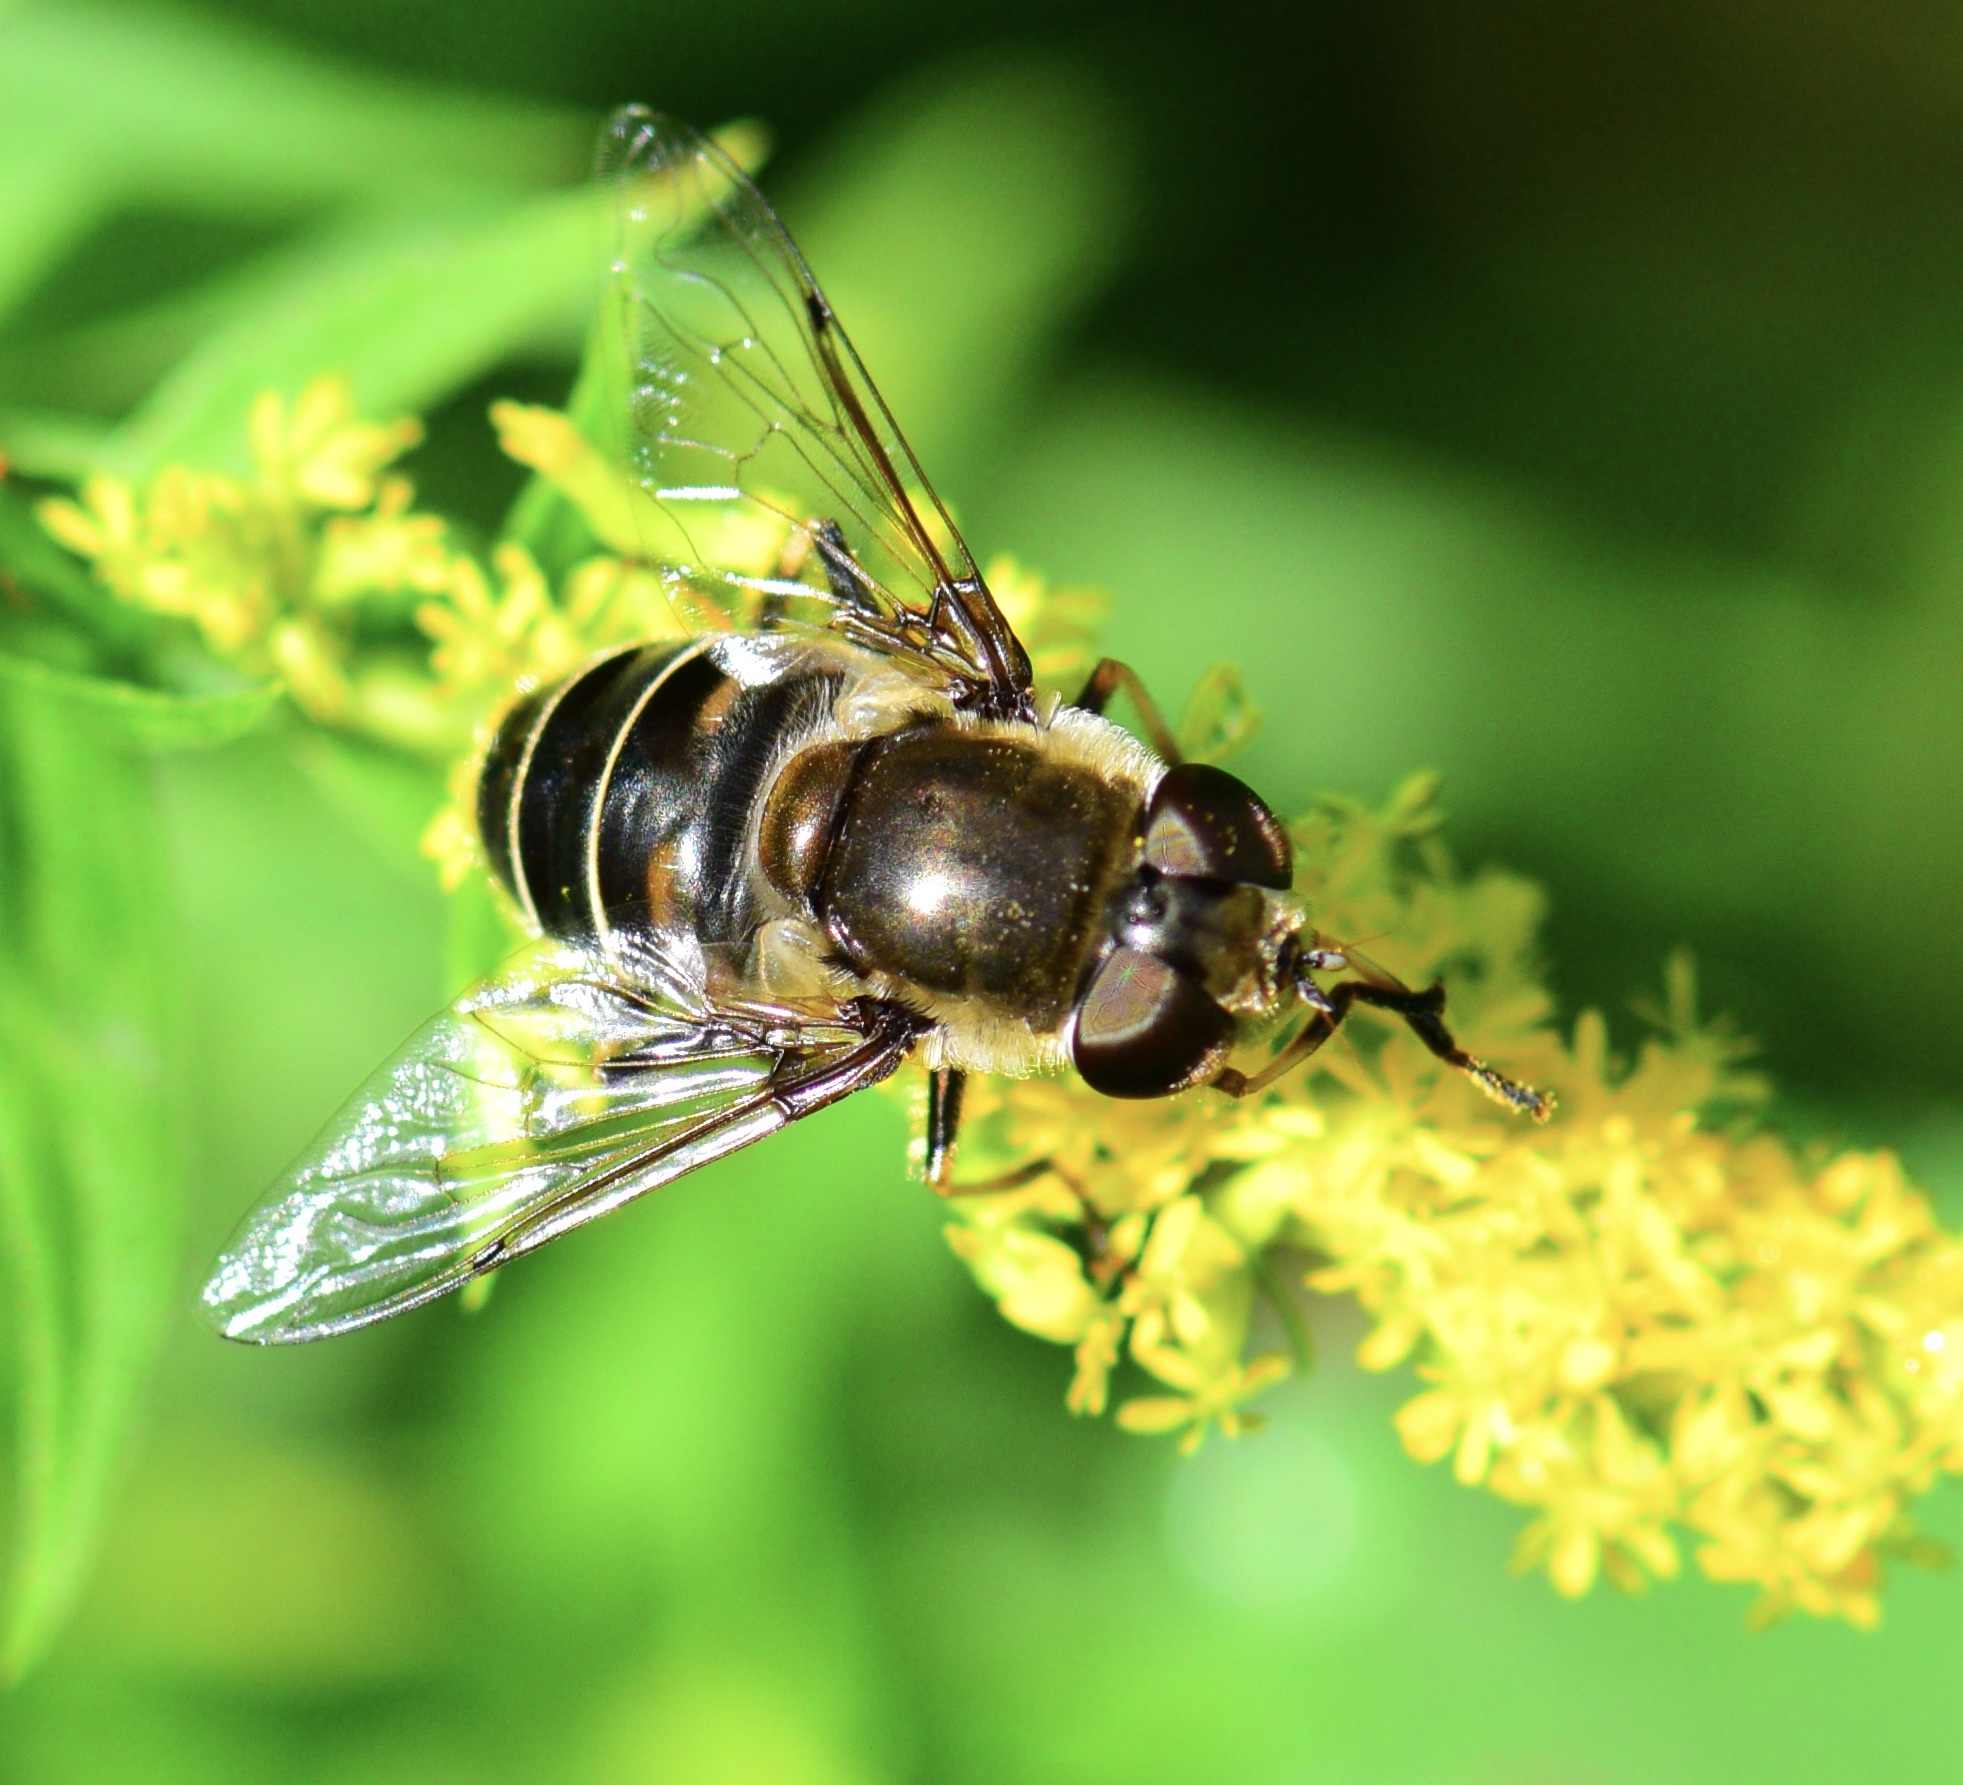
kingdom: Animalia
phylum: Arthropoda
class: Insecta
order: Diptera
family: Syrphidae
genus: Eristalis
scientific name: Eristalis dimidiata
